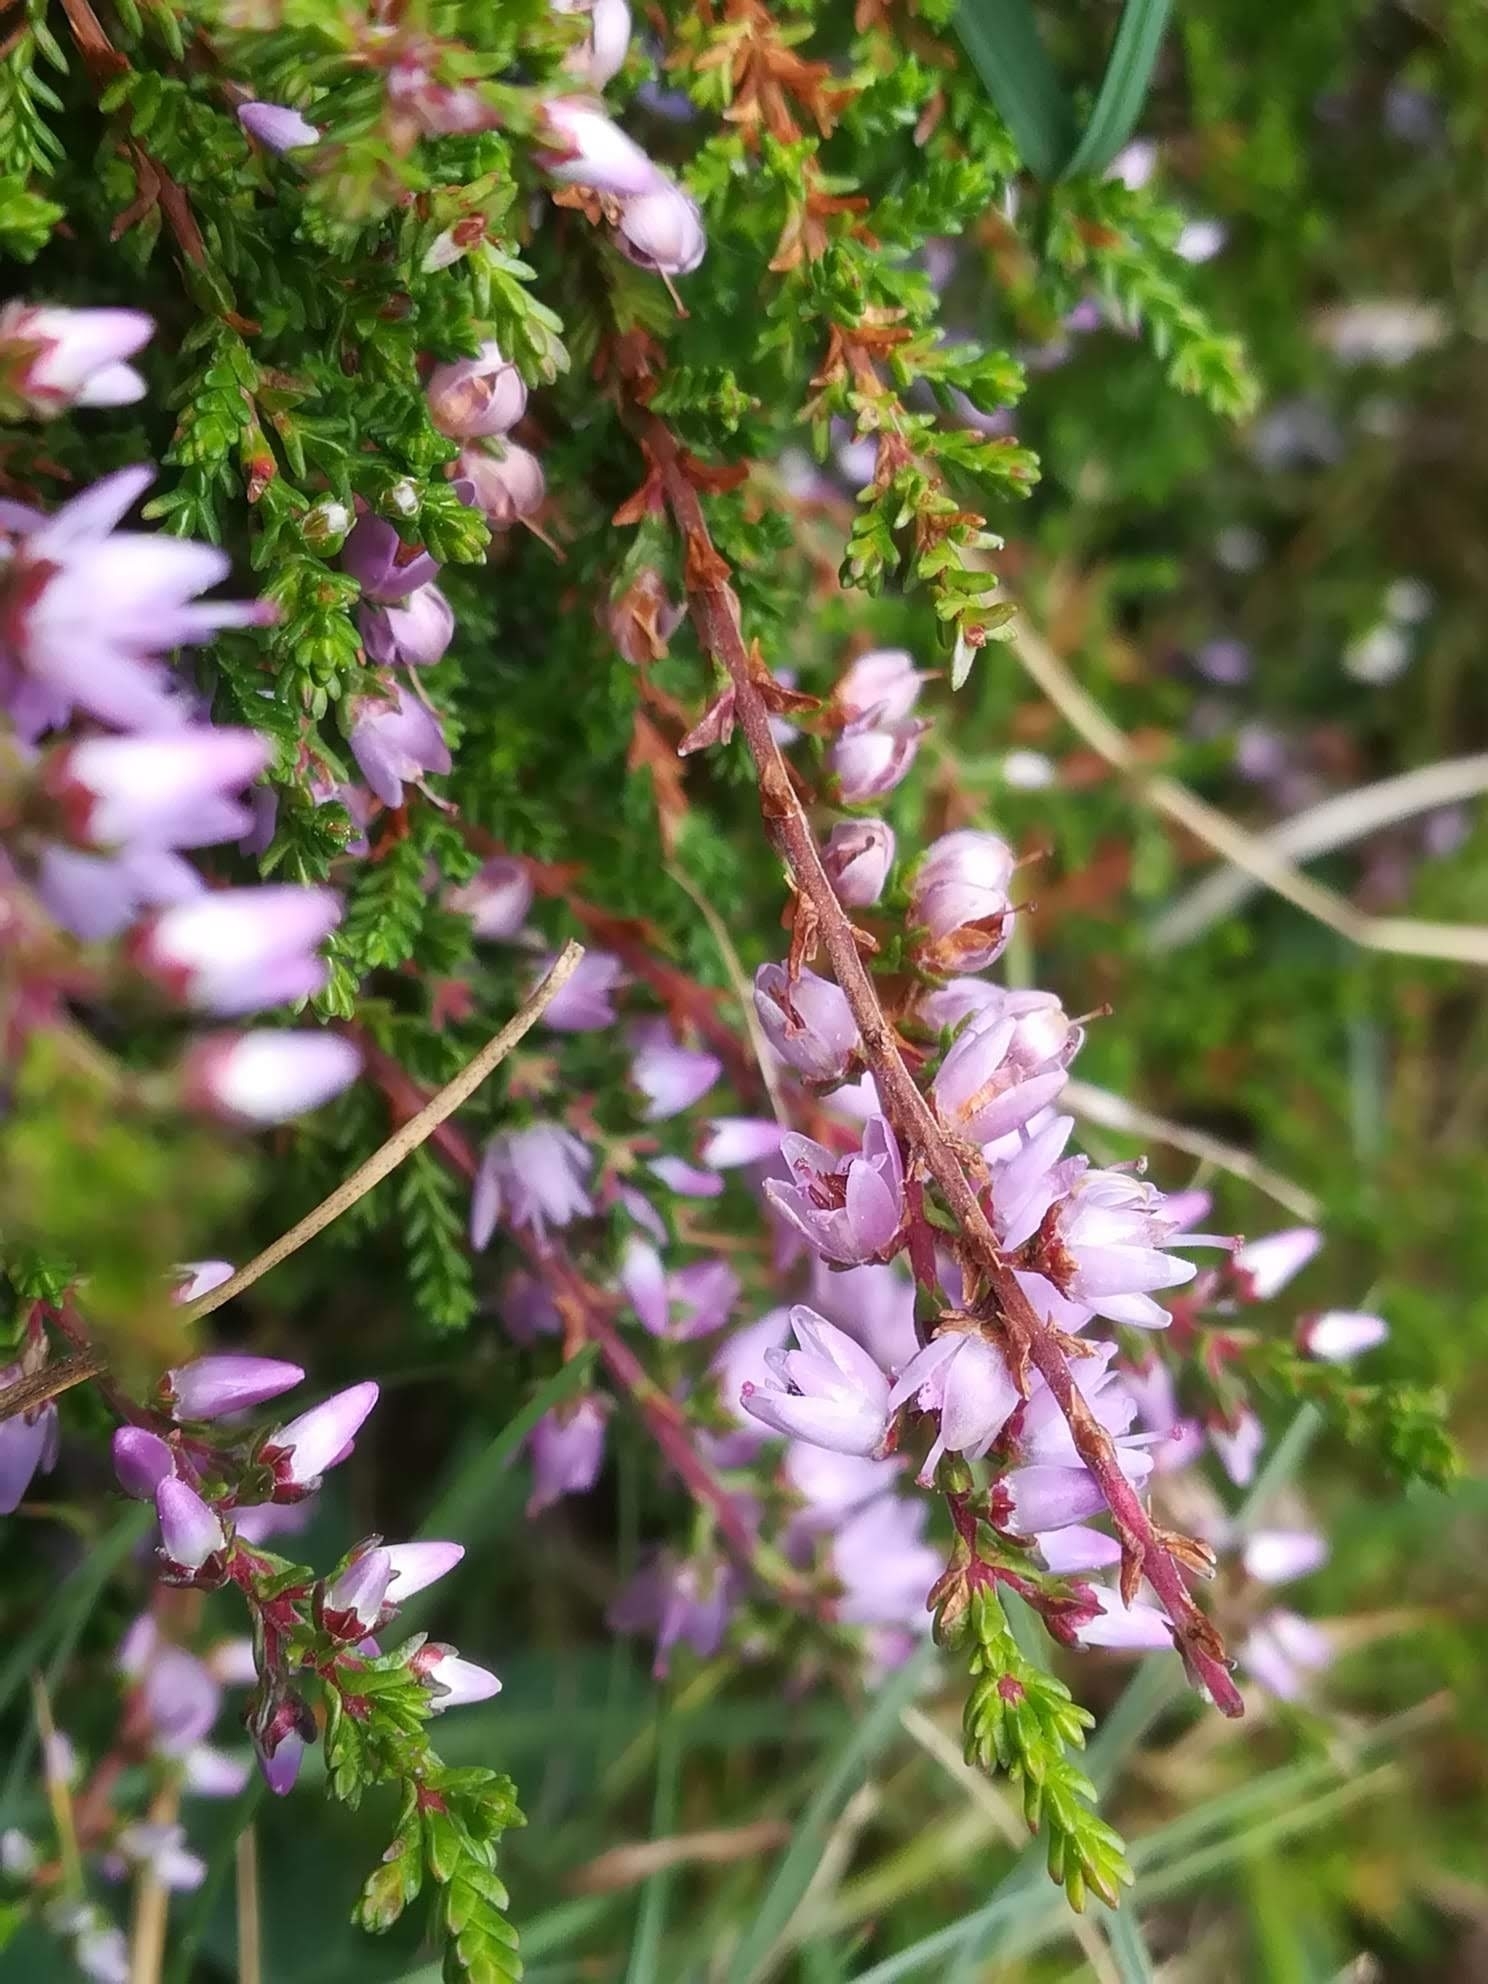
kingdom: Plantae
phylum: Tracheophyta
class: Magnoliopsida
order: Ericales
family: Ericaceae
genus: Calluna
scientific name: Calluna vulgaris
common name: Heather
